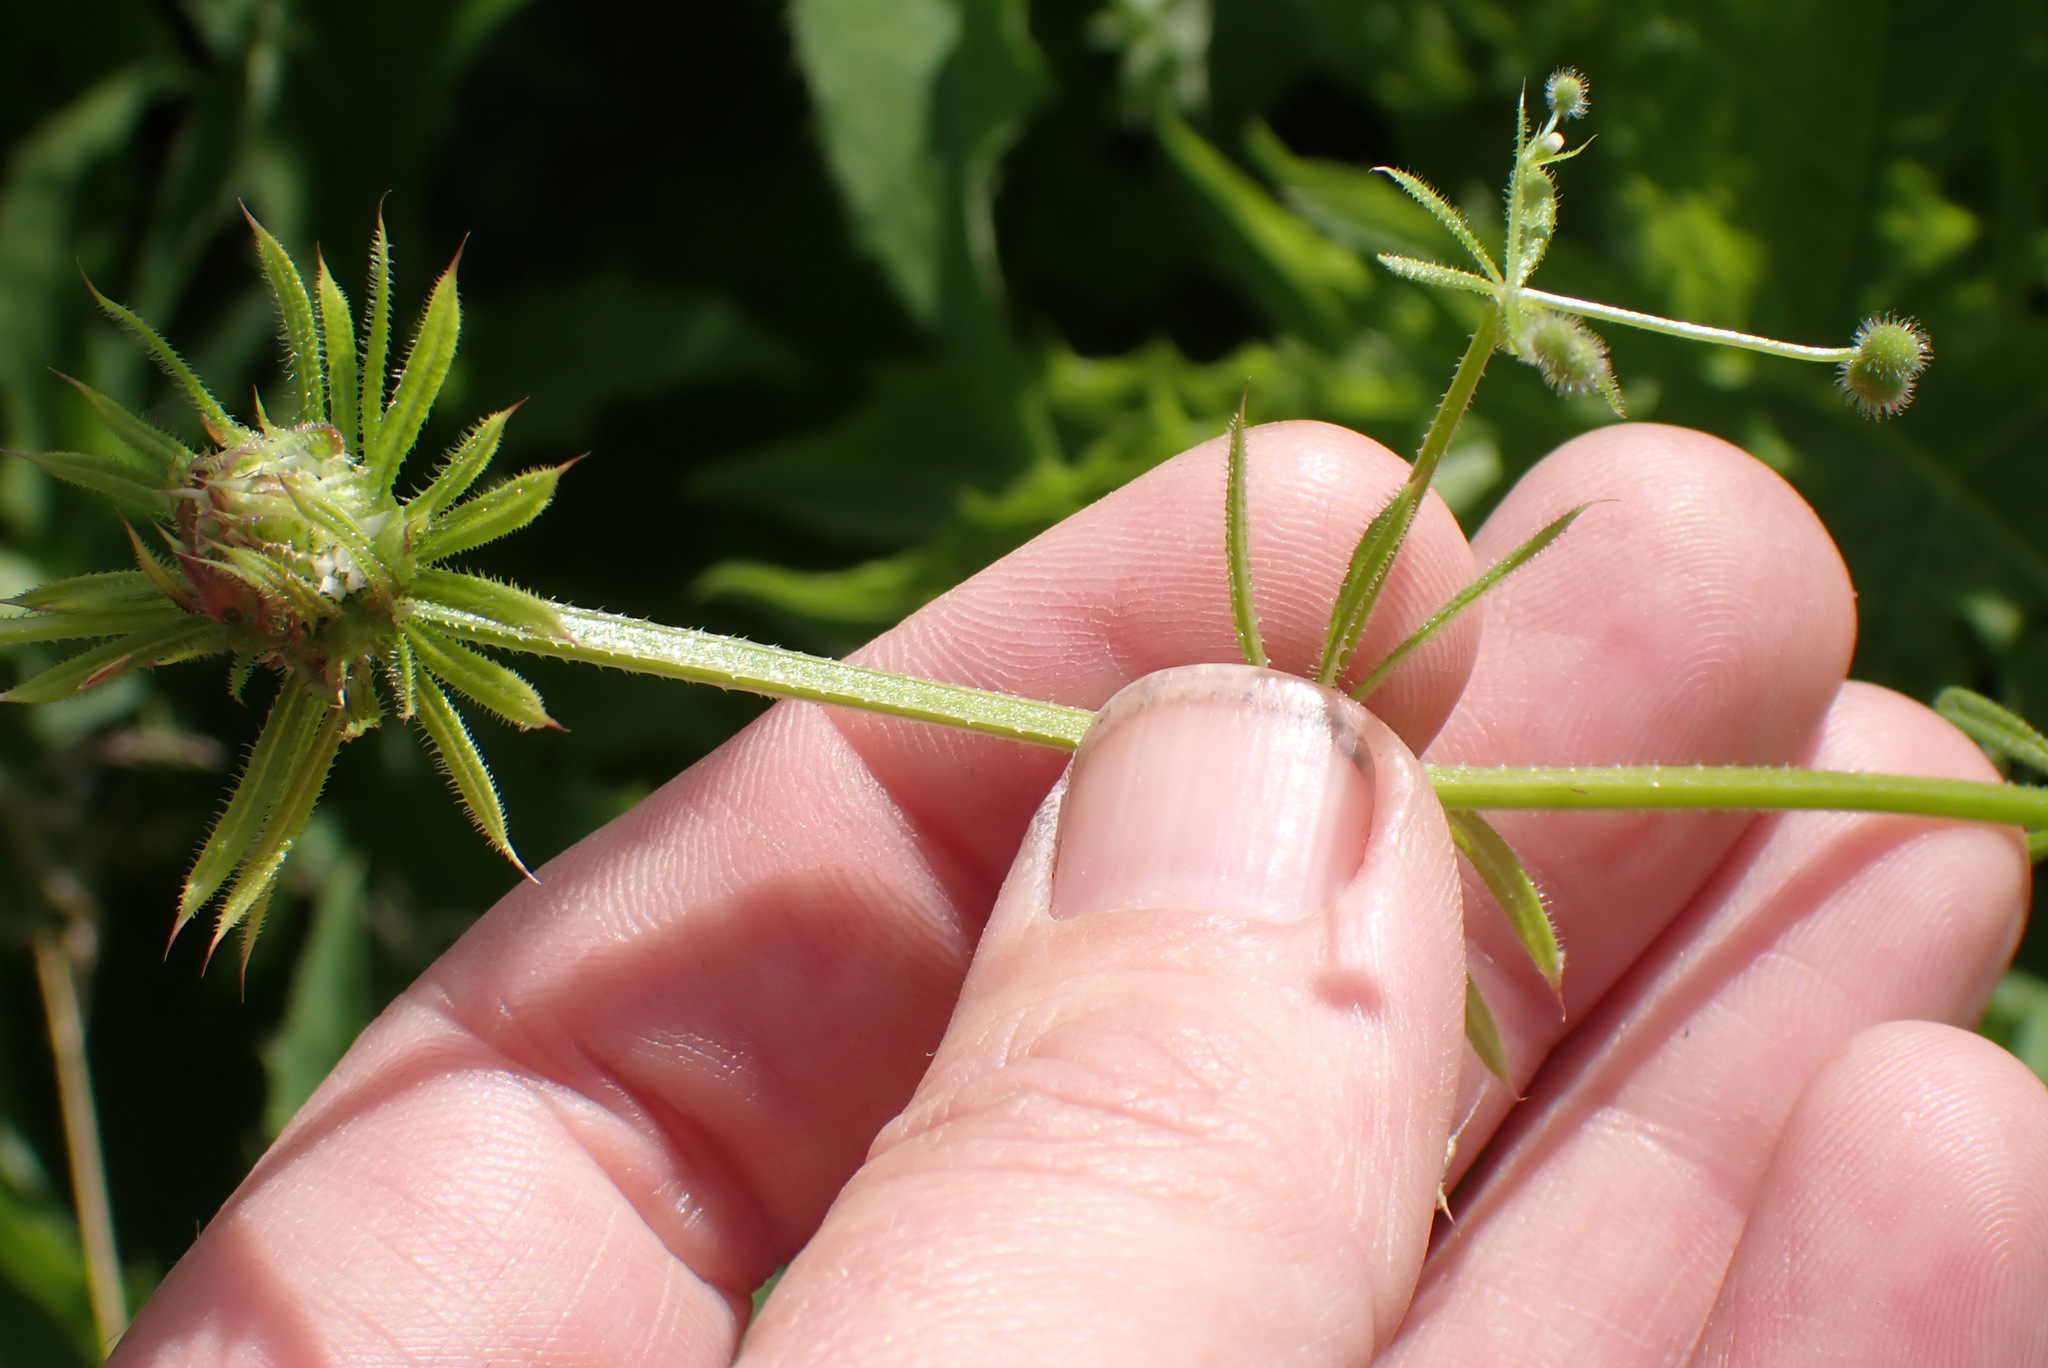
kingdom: Plantae
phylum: Tracheophyta
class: Magnoliopsida
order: Gentianales
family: Rubiaceae
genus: Galium
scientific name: Galium aparine
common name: Cleavers
